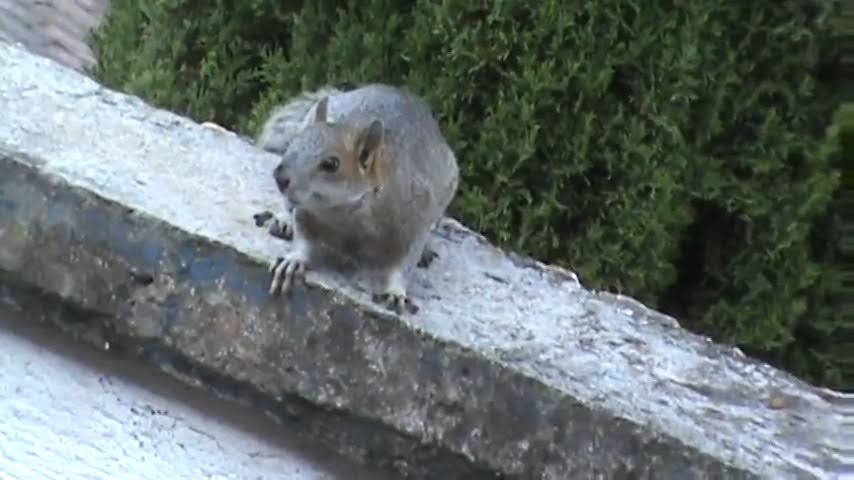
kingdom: Animalia
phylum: Chordata
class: Mammalia
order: Rodentia
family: Sciuridae
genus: Sciurus
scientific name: Sciurus aureogaster
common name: Red-bellied squirrel
